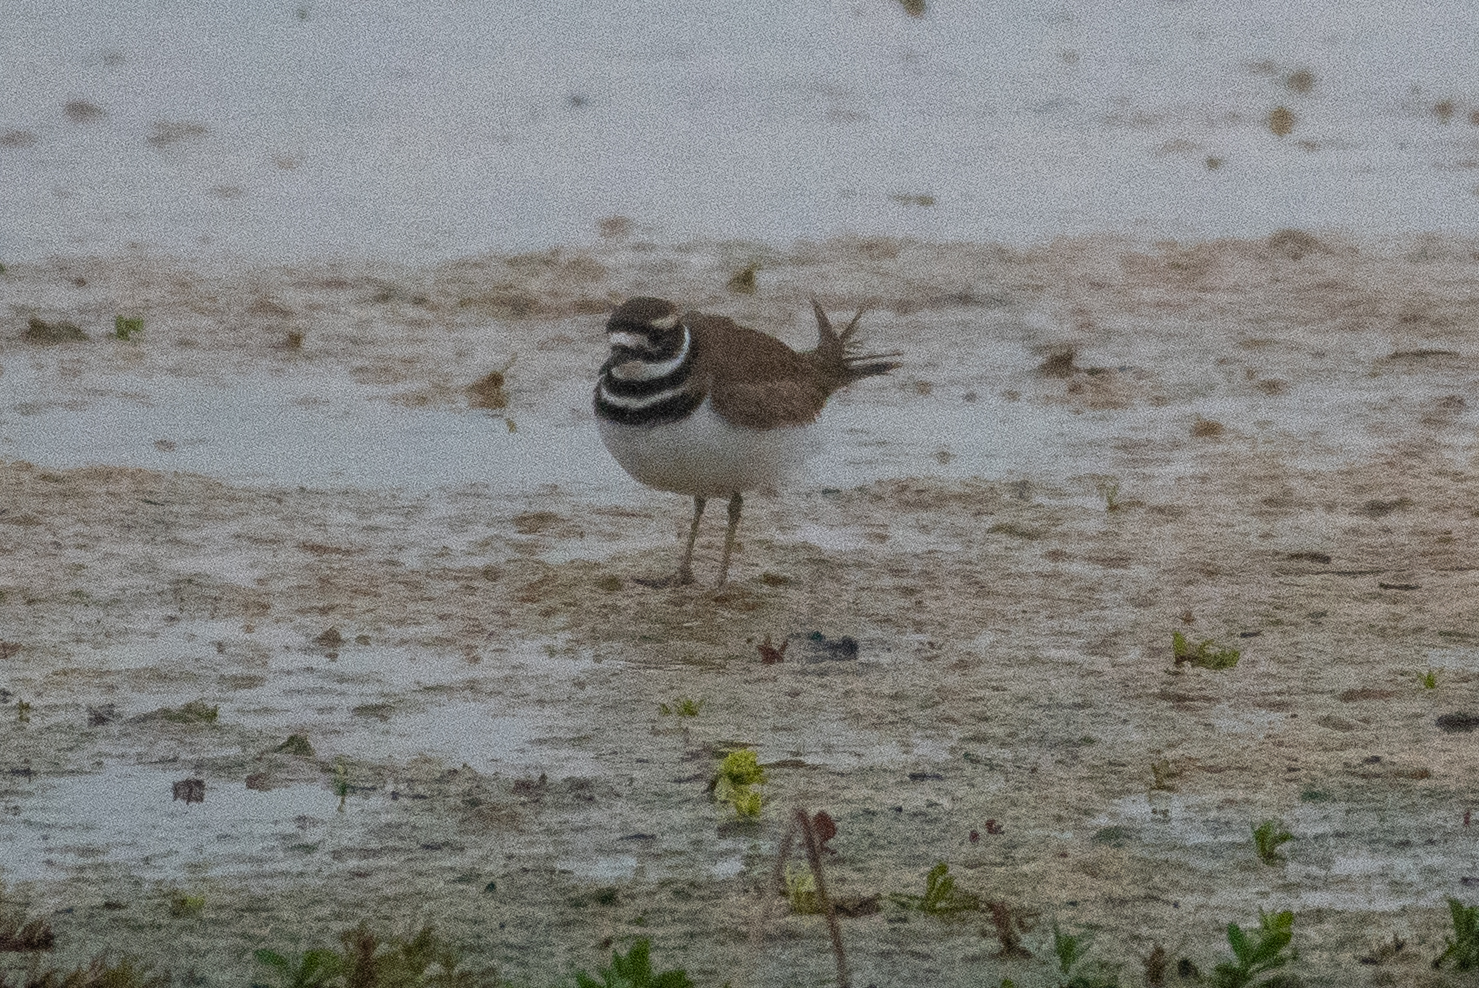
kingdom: Animalia
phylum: Chordata
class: Aves
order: Charadriiformes
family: Charadriidae
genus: Charadrius
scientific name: Charadrius vociferus
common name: Killdeer
